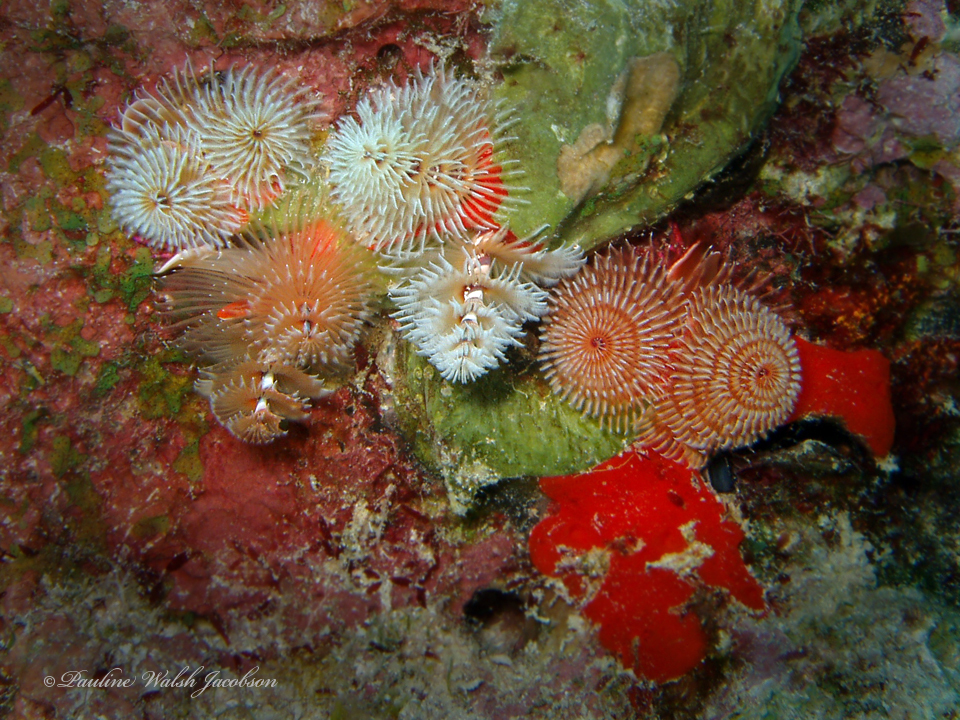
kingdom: Animalia
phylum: Annelida
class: Polychaeta
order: Sabellida
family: Serpulidae
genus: Spirobranchus
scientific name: Spirobranchus giganteus
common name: Christmas tree worm
